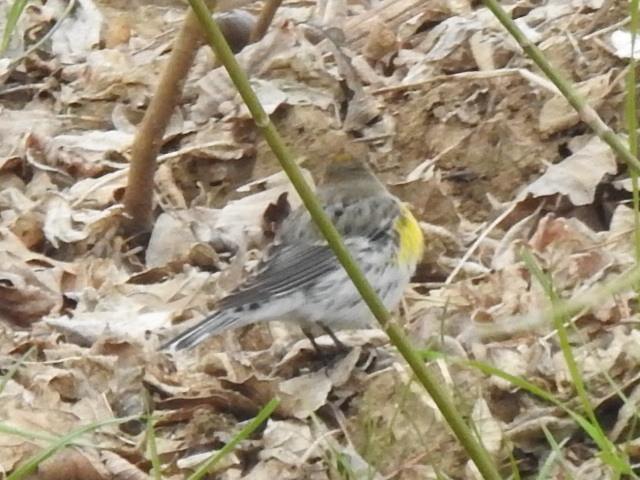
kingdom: Animalia
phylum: Chordata
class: Aves
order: Passeriformes
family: Parulidae
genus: Setophaga
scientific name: Setophaga coronata
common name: Myrtle warbler
